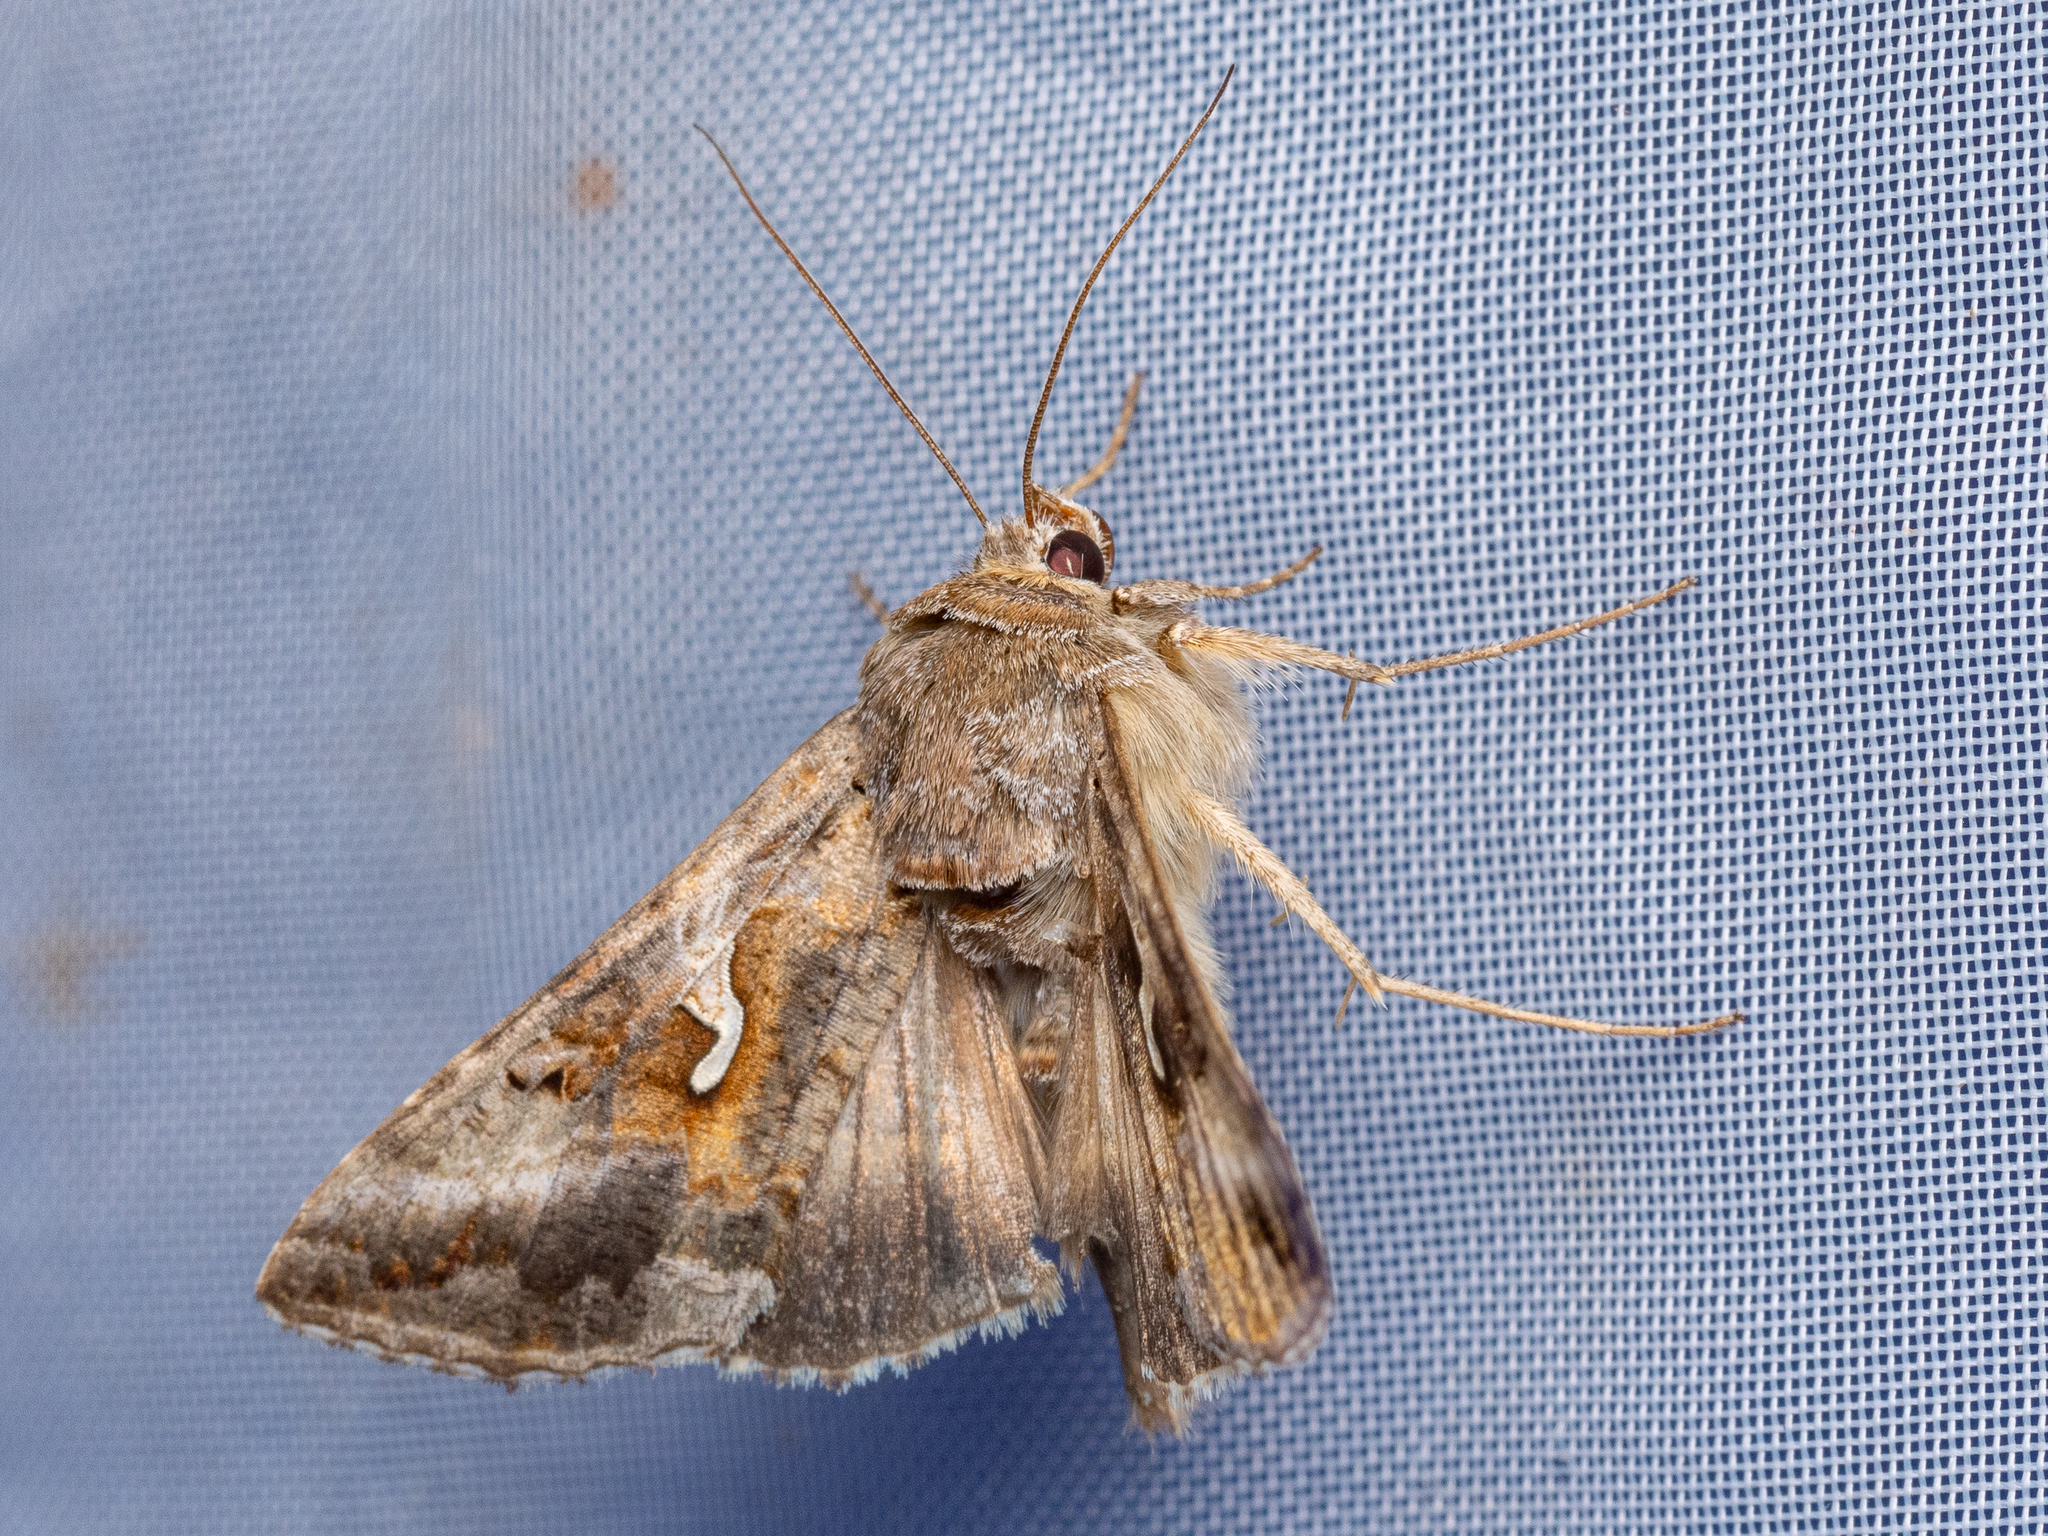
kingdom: Animalia
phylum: Arthropoda
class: Insecta
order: Lepidoptera
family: Noctuidae
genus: Autographa
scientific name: Autographa gamma
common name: Silver y
